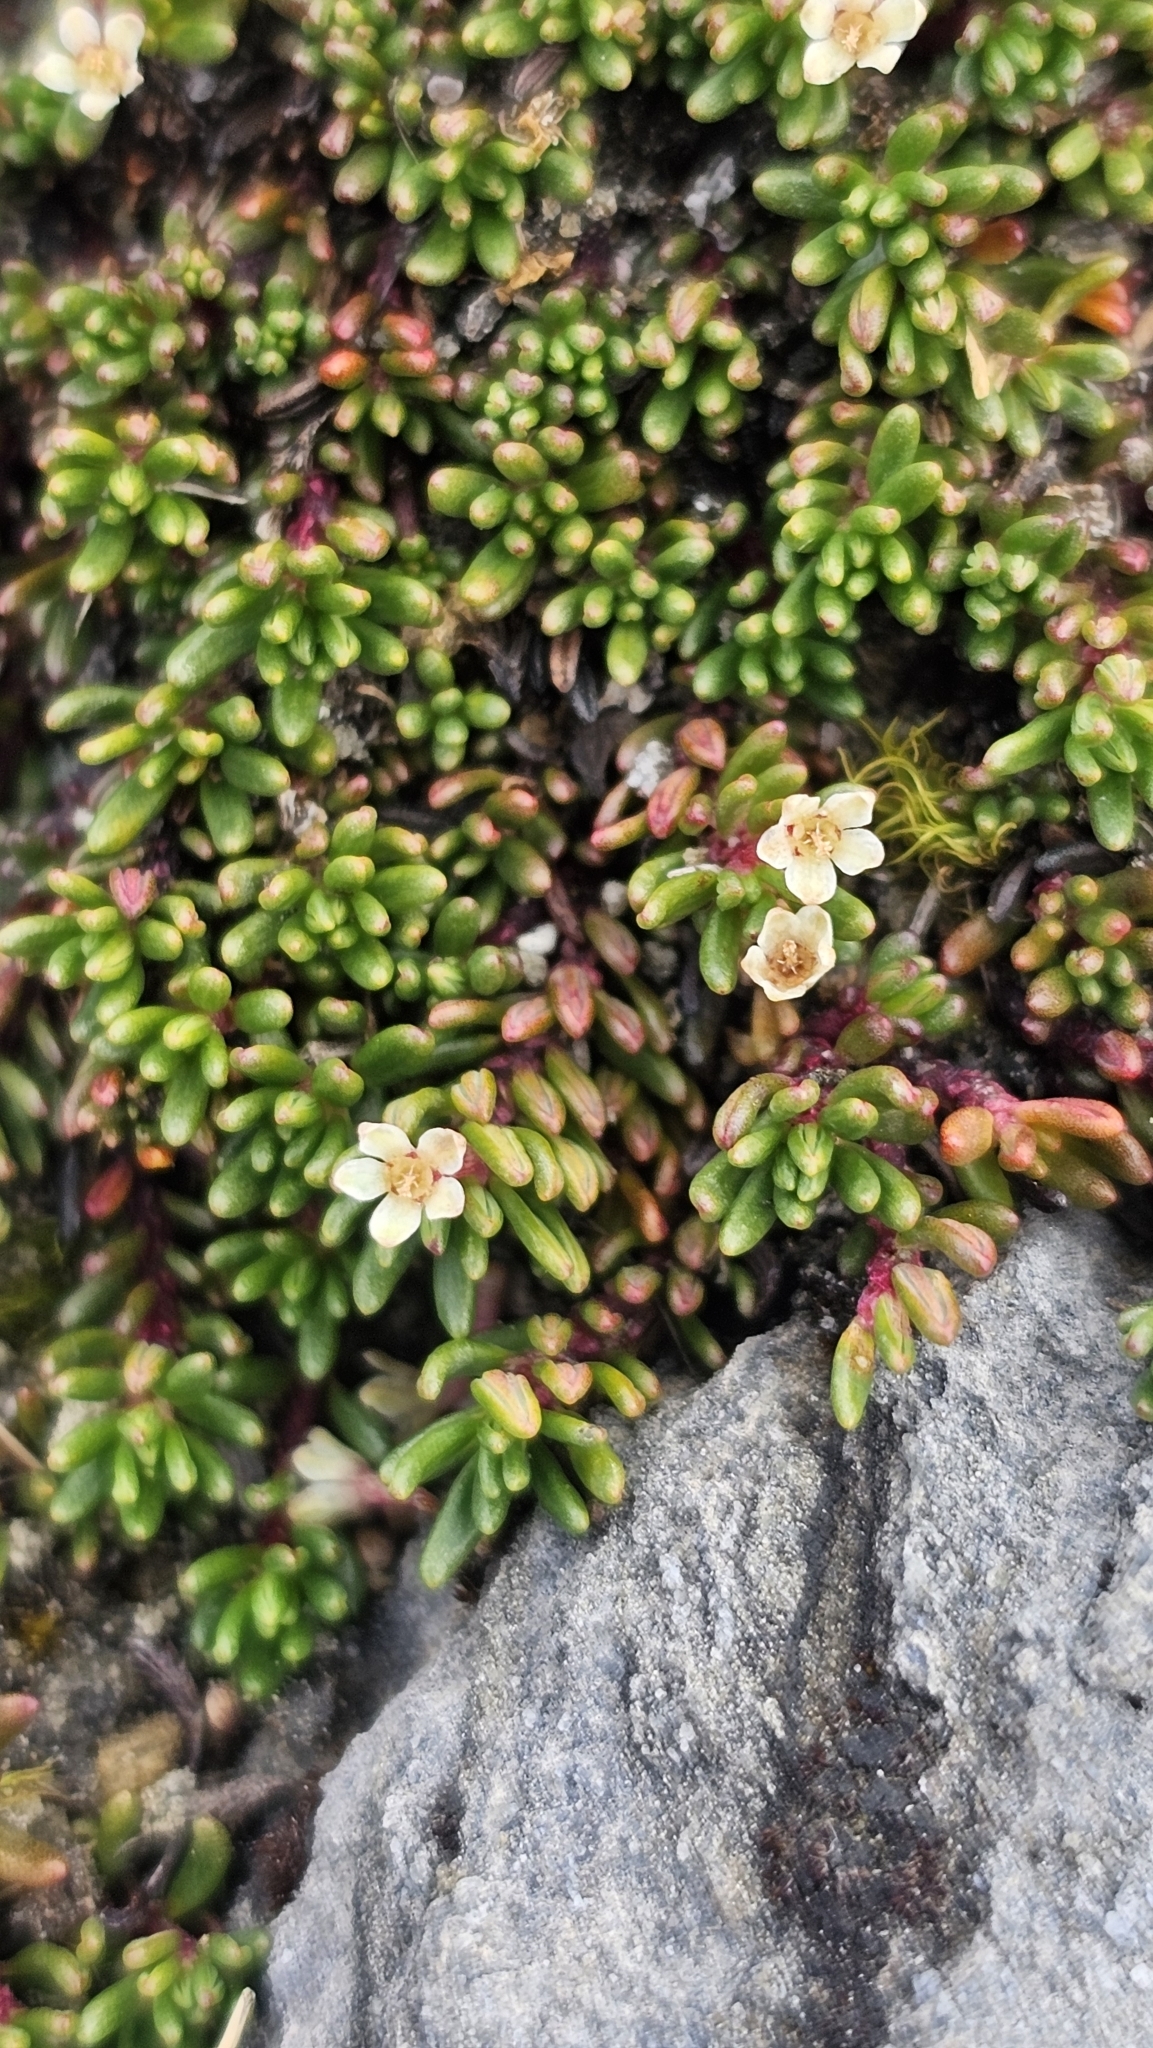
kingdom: Plantae
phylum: Tracheophyta
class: Magnoliopsida
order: Malpighiales
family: Phyllanthaceae
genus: Poranthera
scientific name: Poranthera alpina
